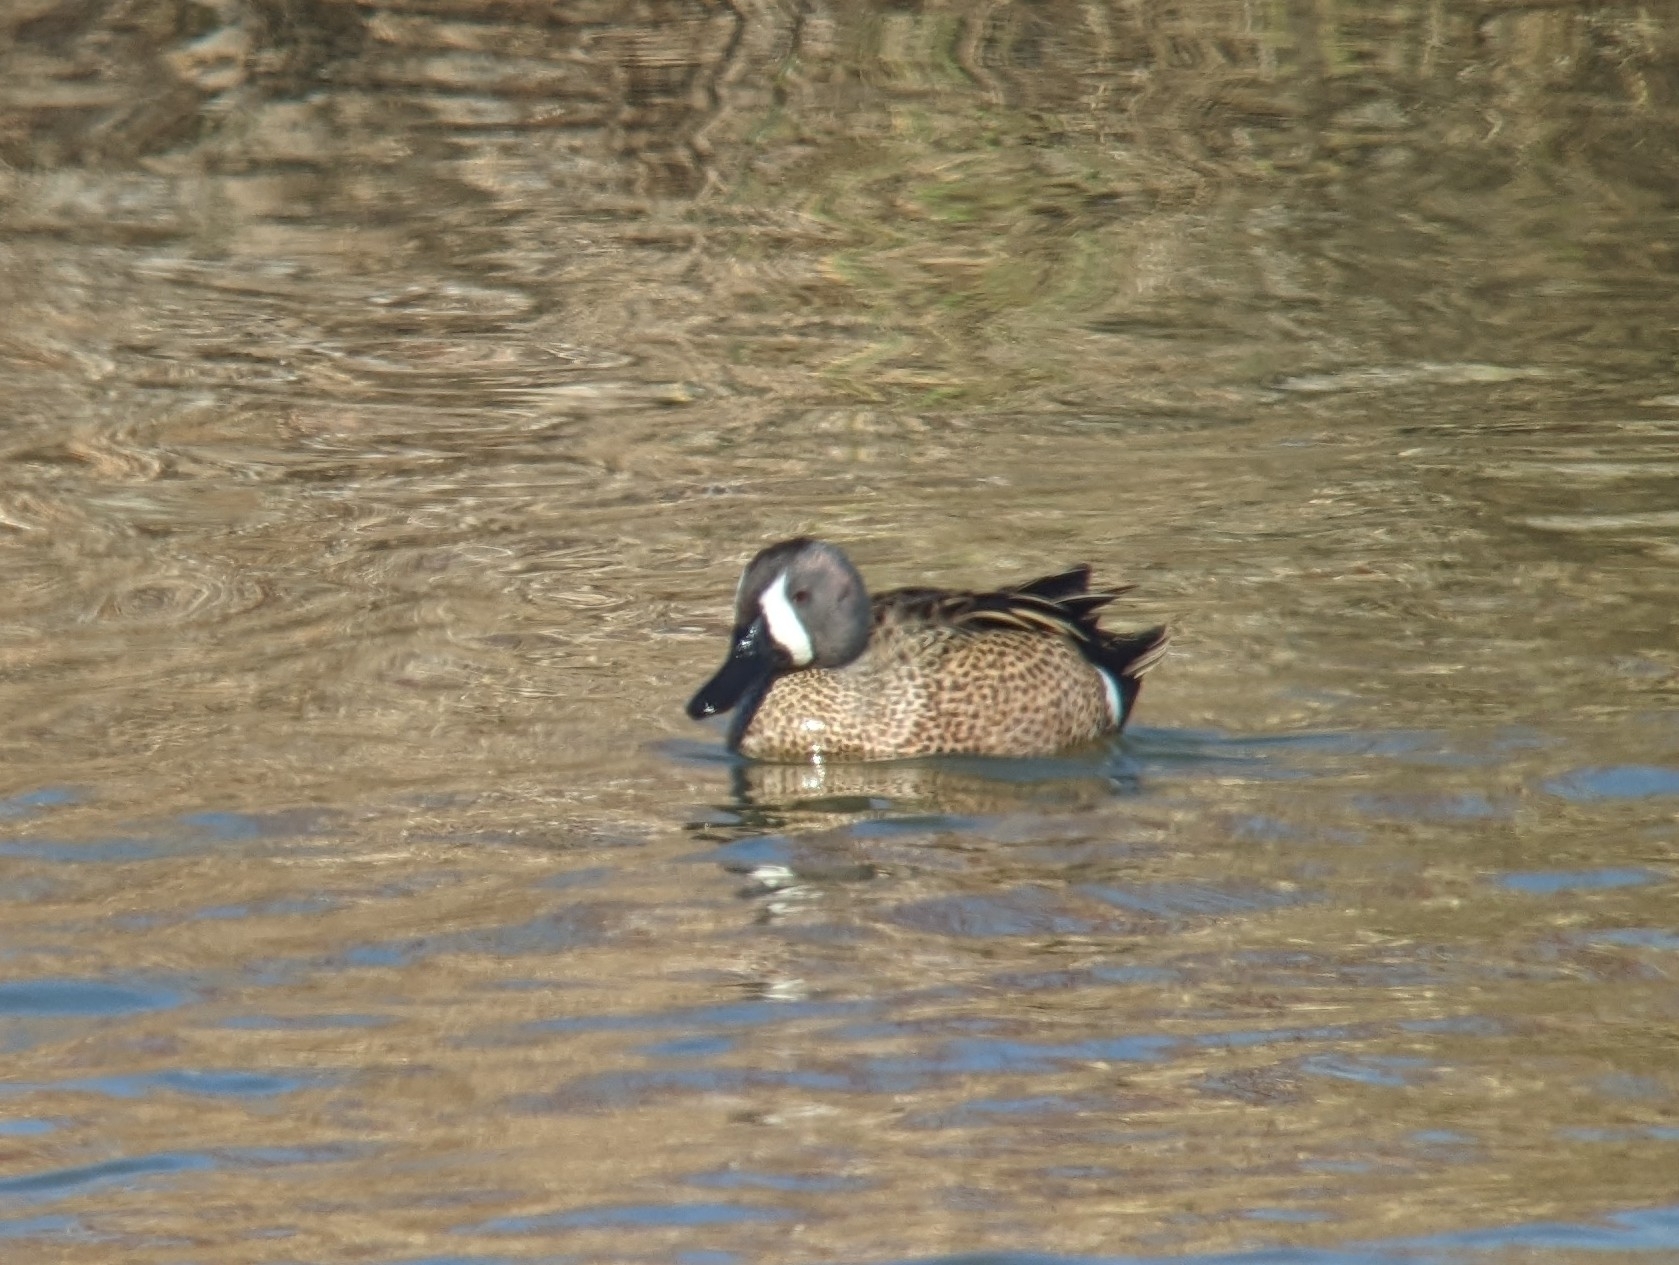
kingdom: Animalia
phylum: Chordata
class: Aves
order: Anseriformes
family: Anatidae
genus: Spatula
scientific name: Spatula discors
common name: Blue-winged teal
